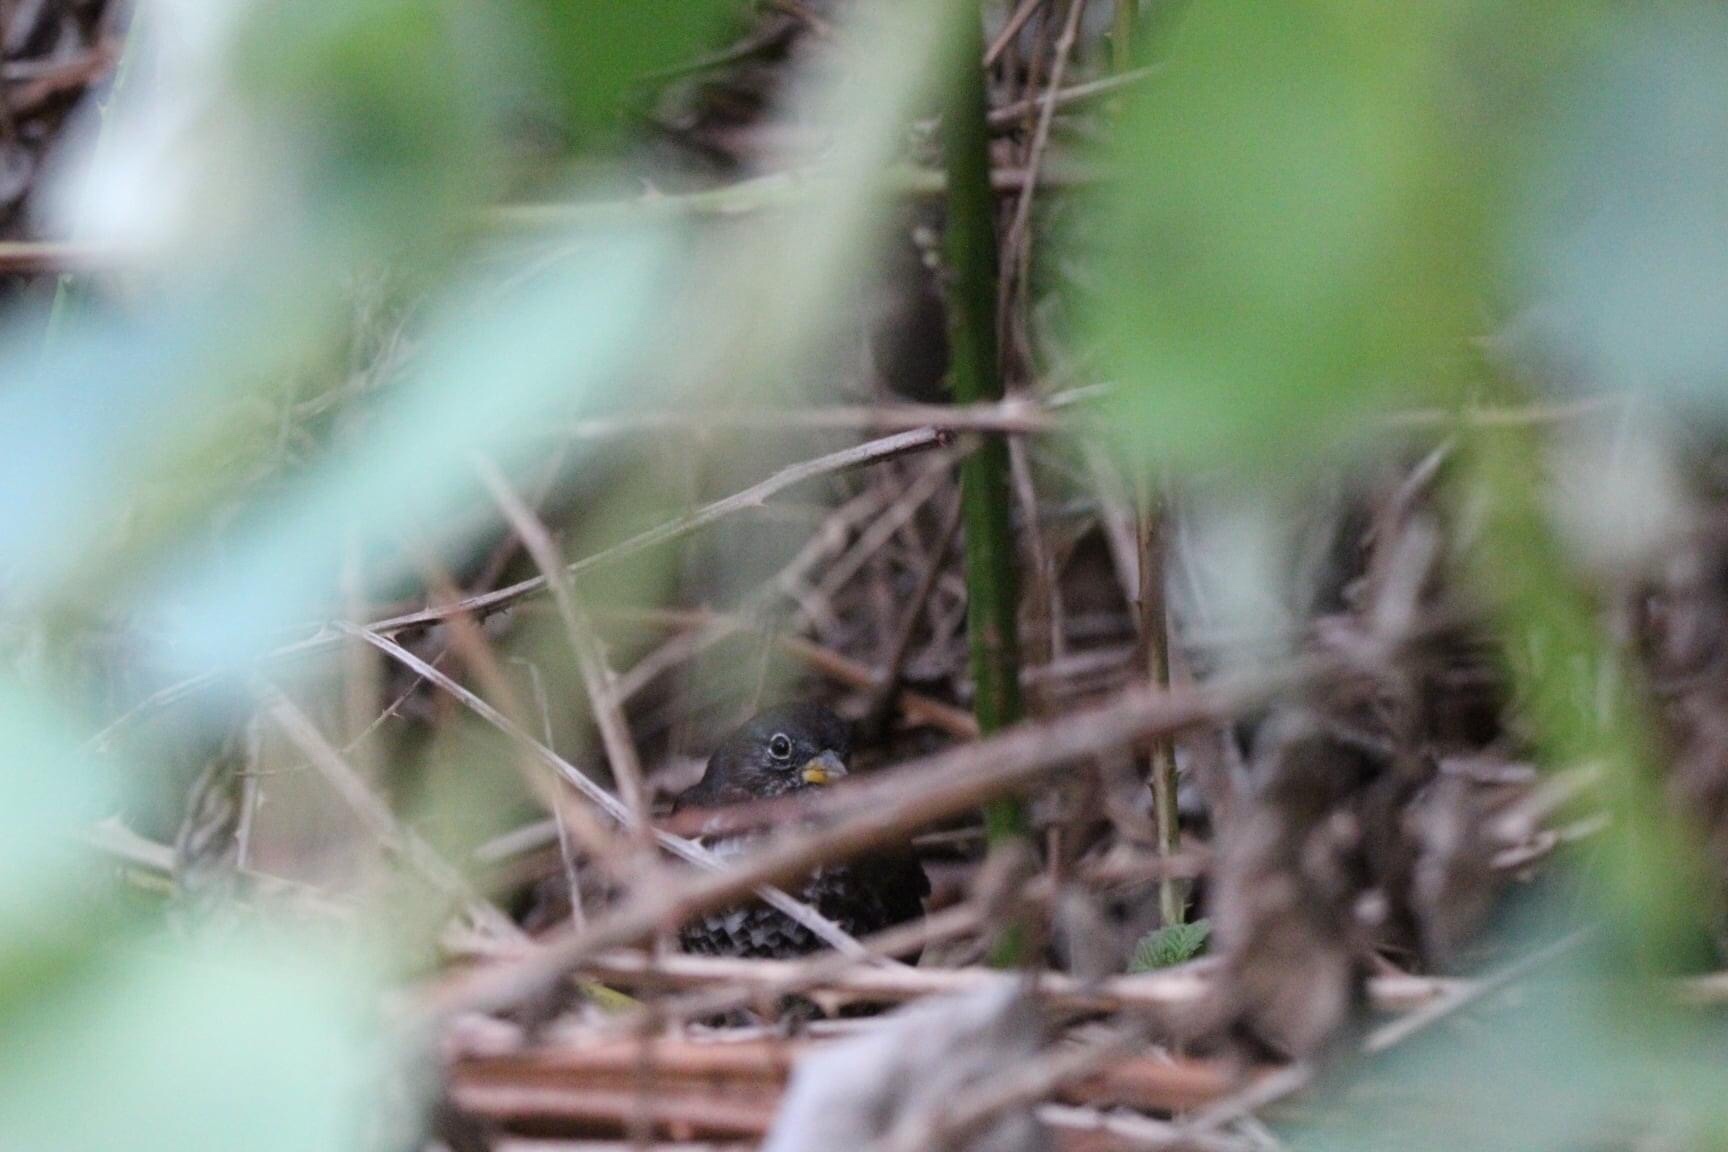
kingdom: Animalia
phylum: Chordata
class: Aves
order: Passeriformes
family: Passerellidae
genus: Passerella
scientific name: Passerella iliaca
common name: Fox sparrow
